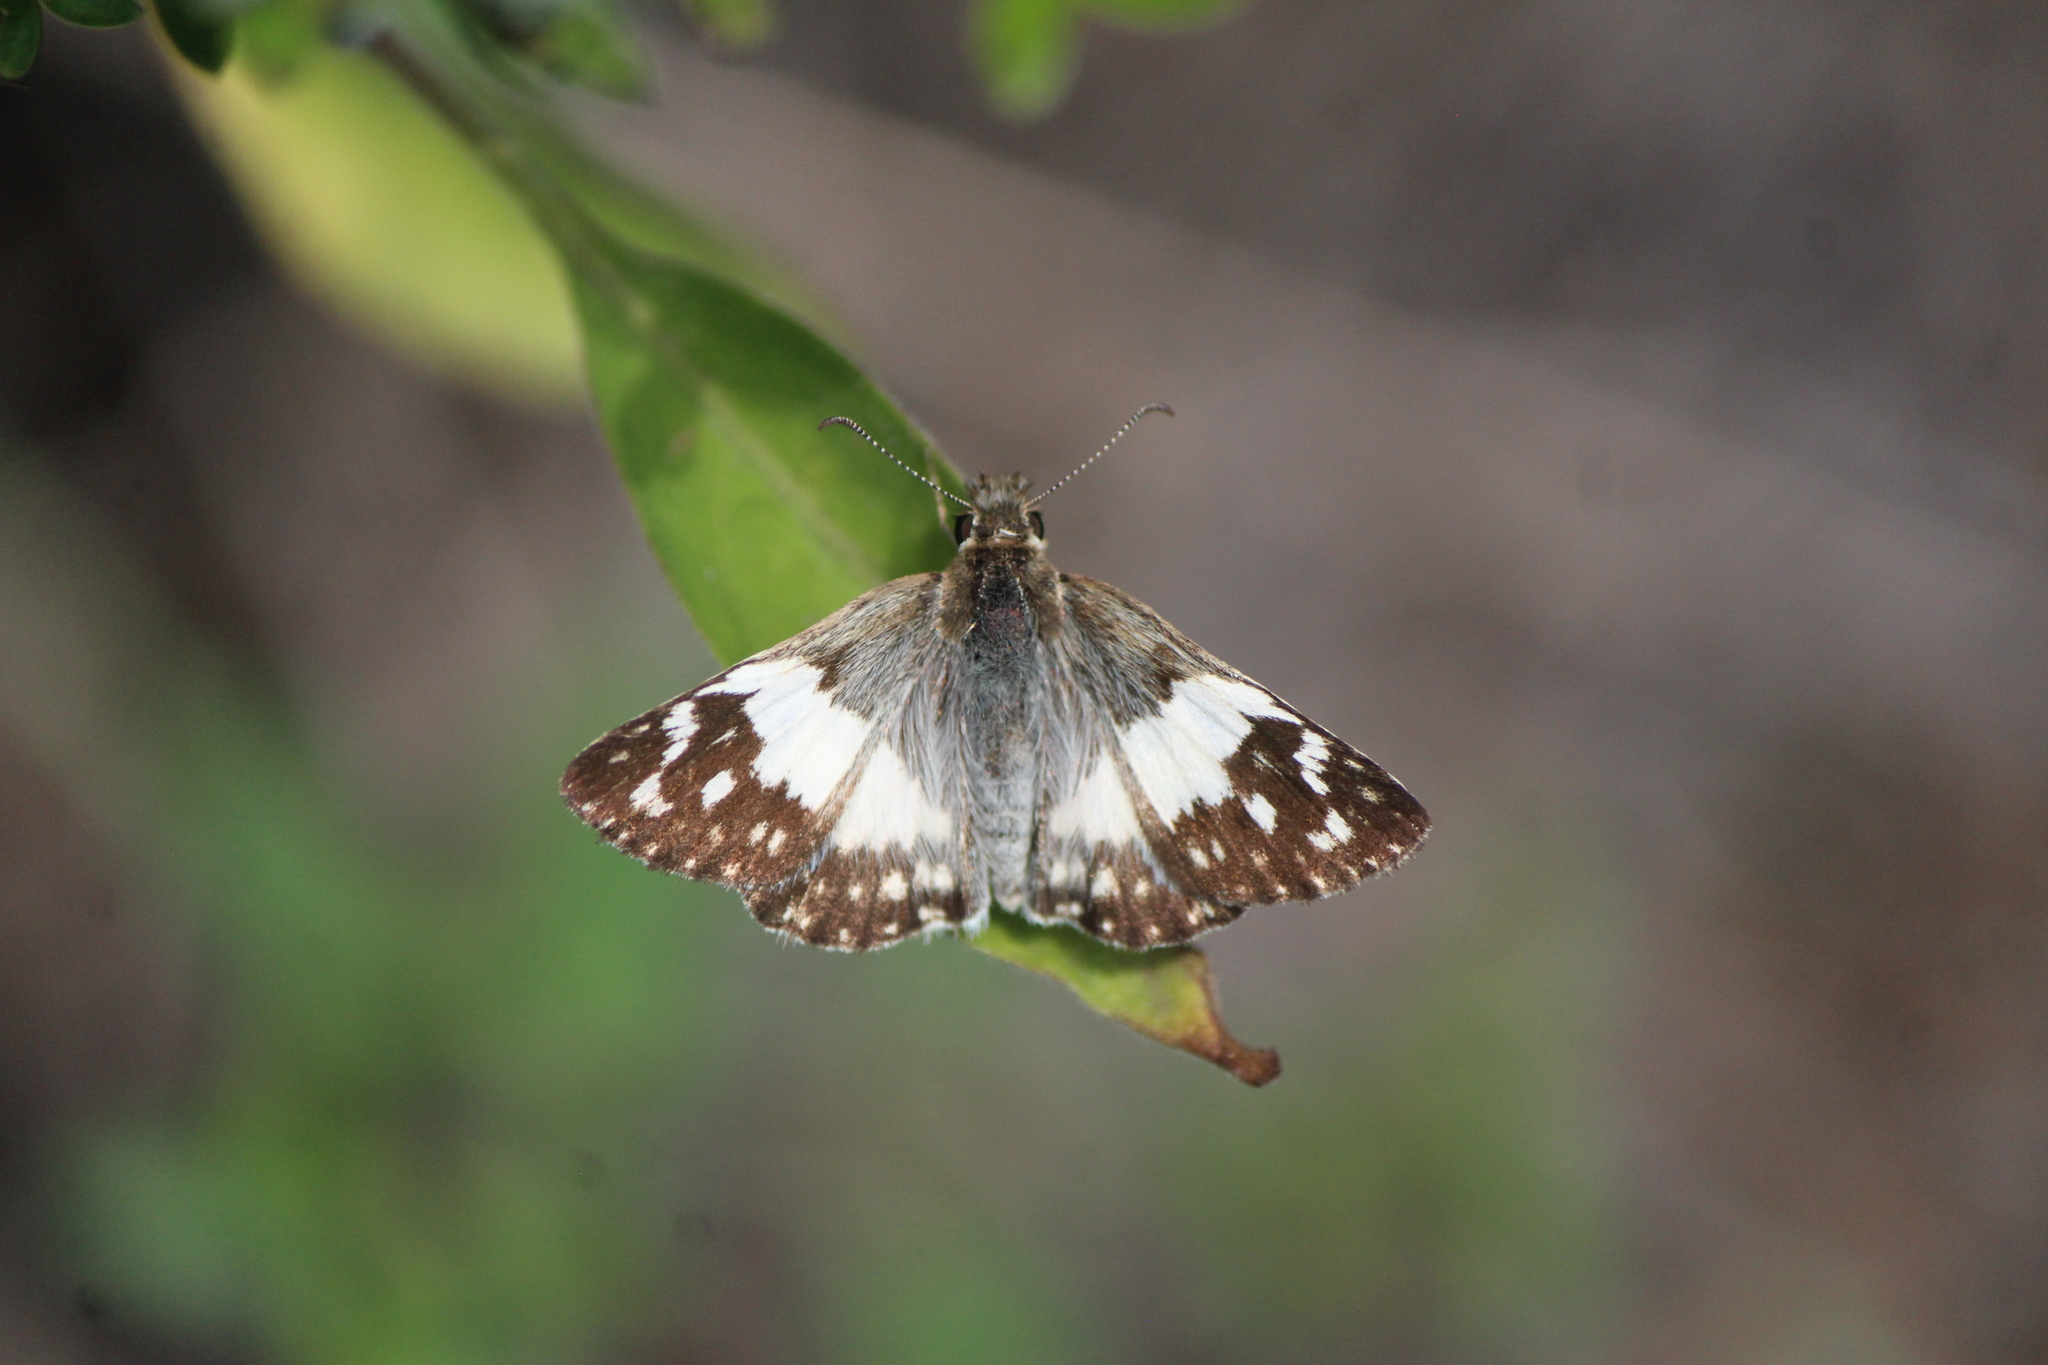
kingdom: Animalia
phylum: Arthropoda
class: Insecta
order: Lepidoptera
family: Hesperiidae
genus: Heliopyrgus
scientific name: Heliopyrgus domicella
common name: Erichson's white skipper
